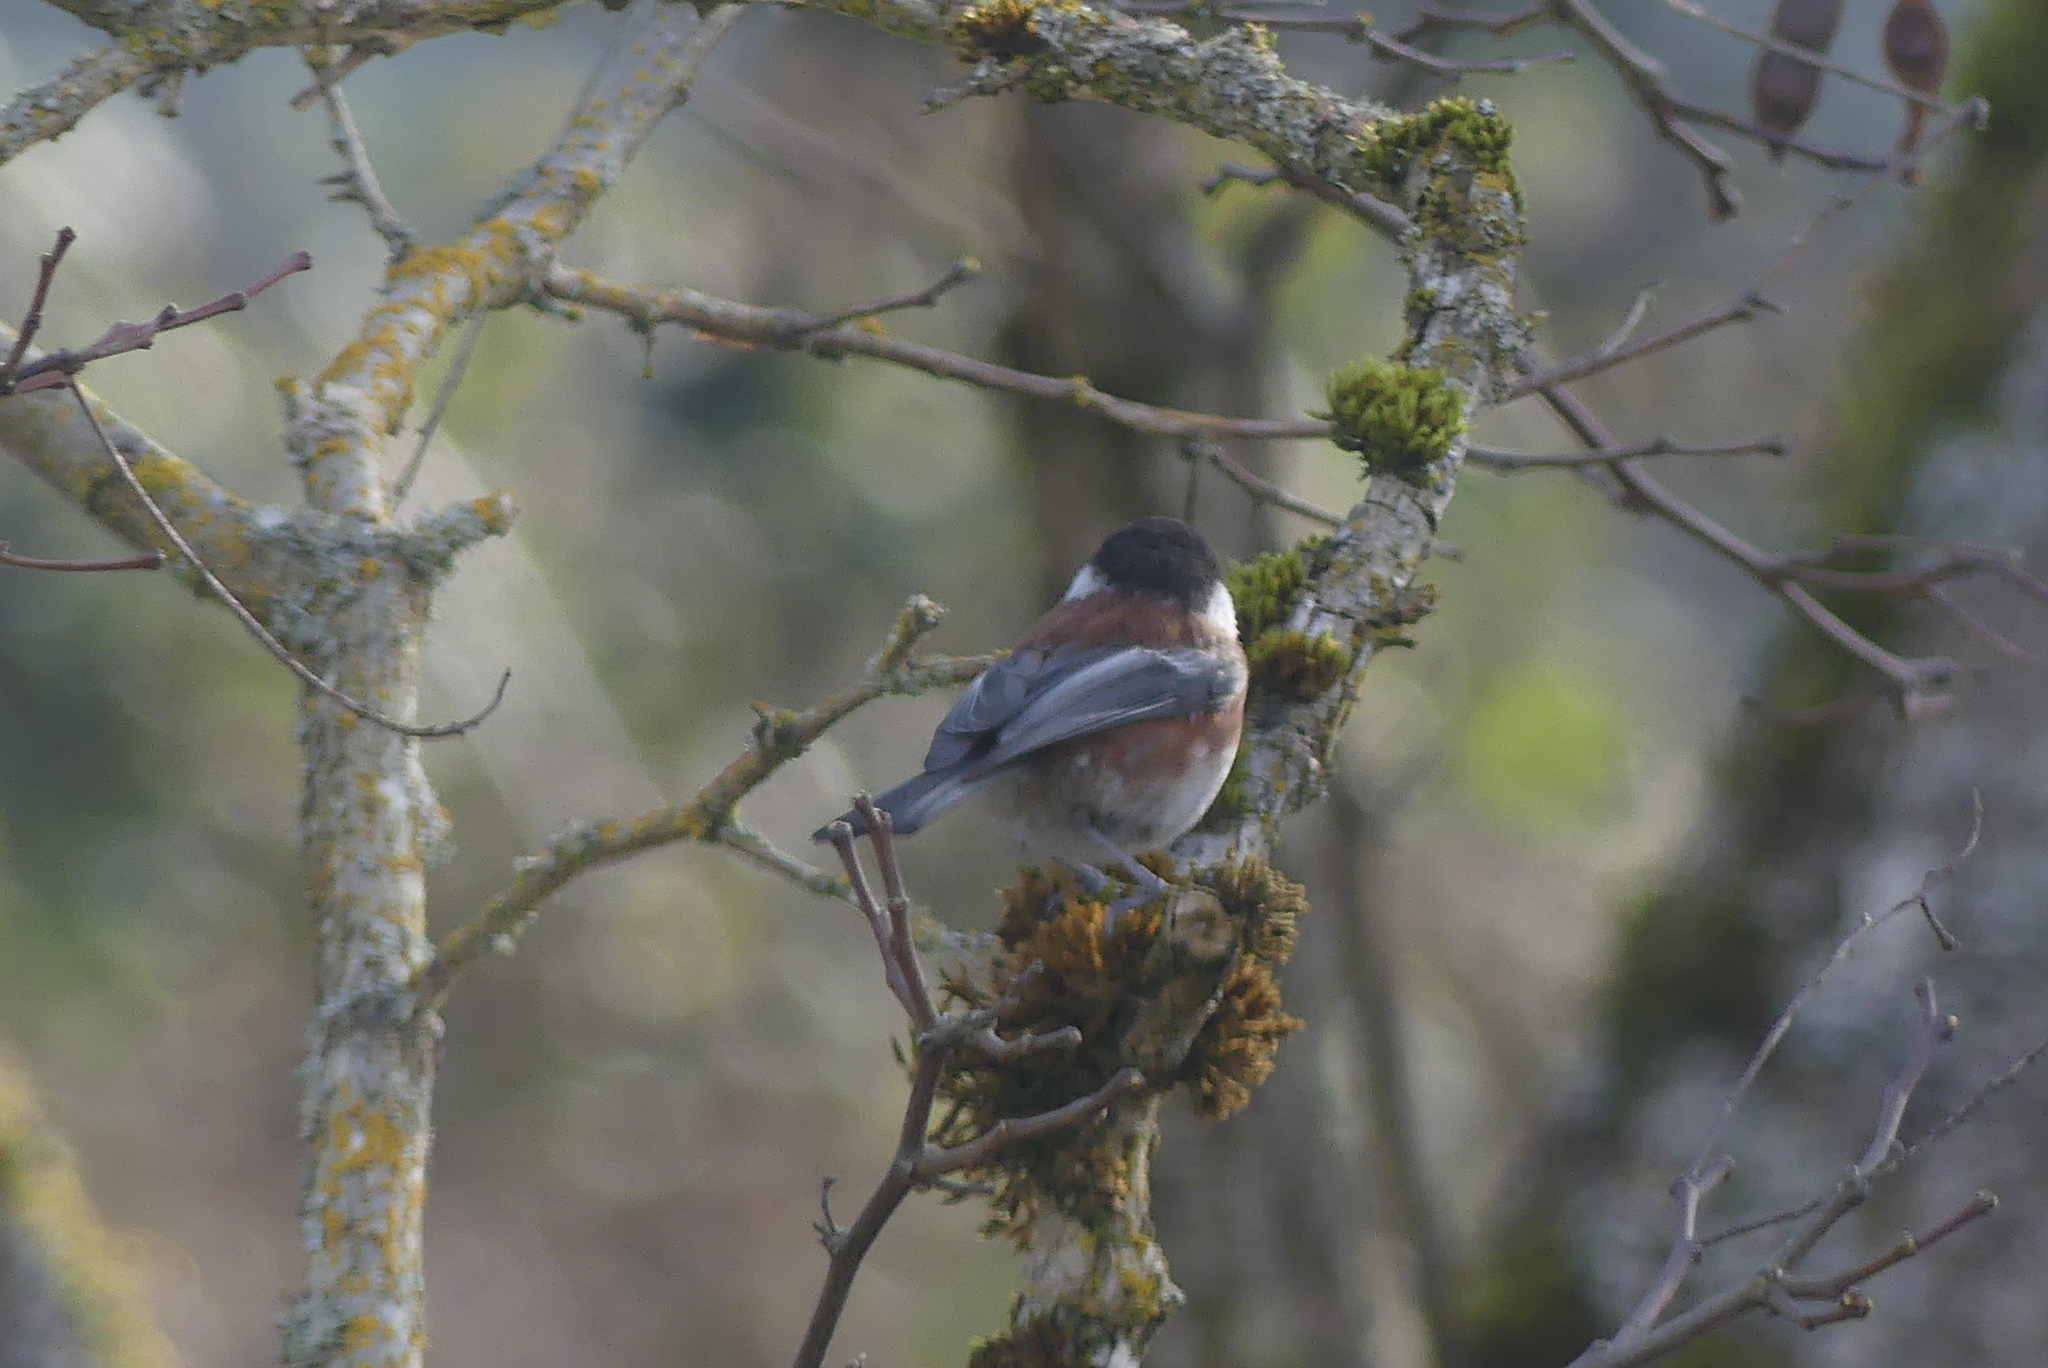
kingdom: Animalia
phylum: Chordata
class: Aves
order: Passeriformes
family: Paridae
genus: Poecile
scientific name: Poecile rufescens
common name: Chestnut-backed chickadee
